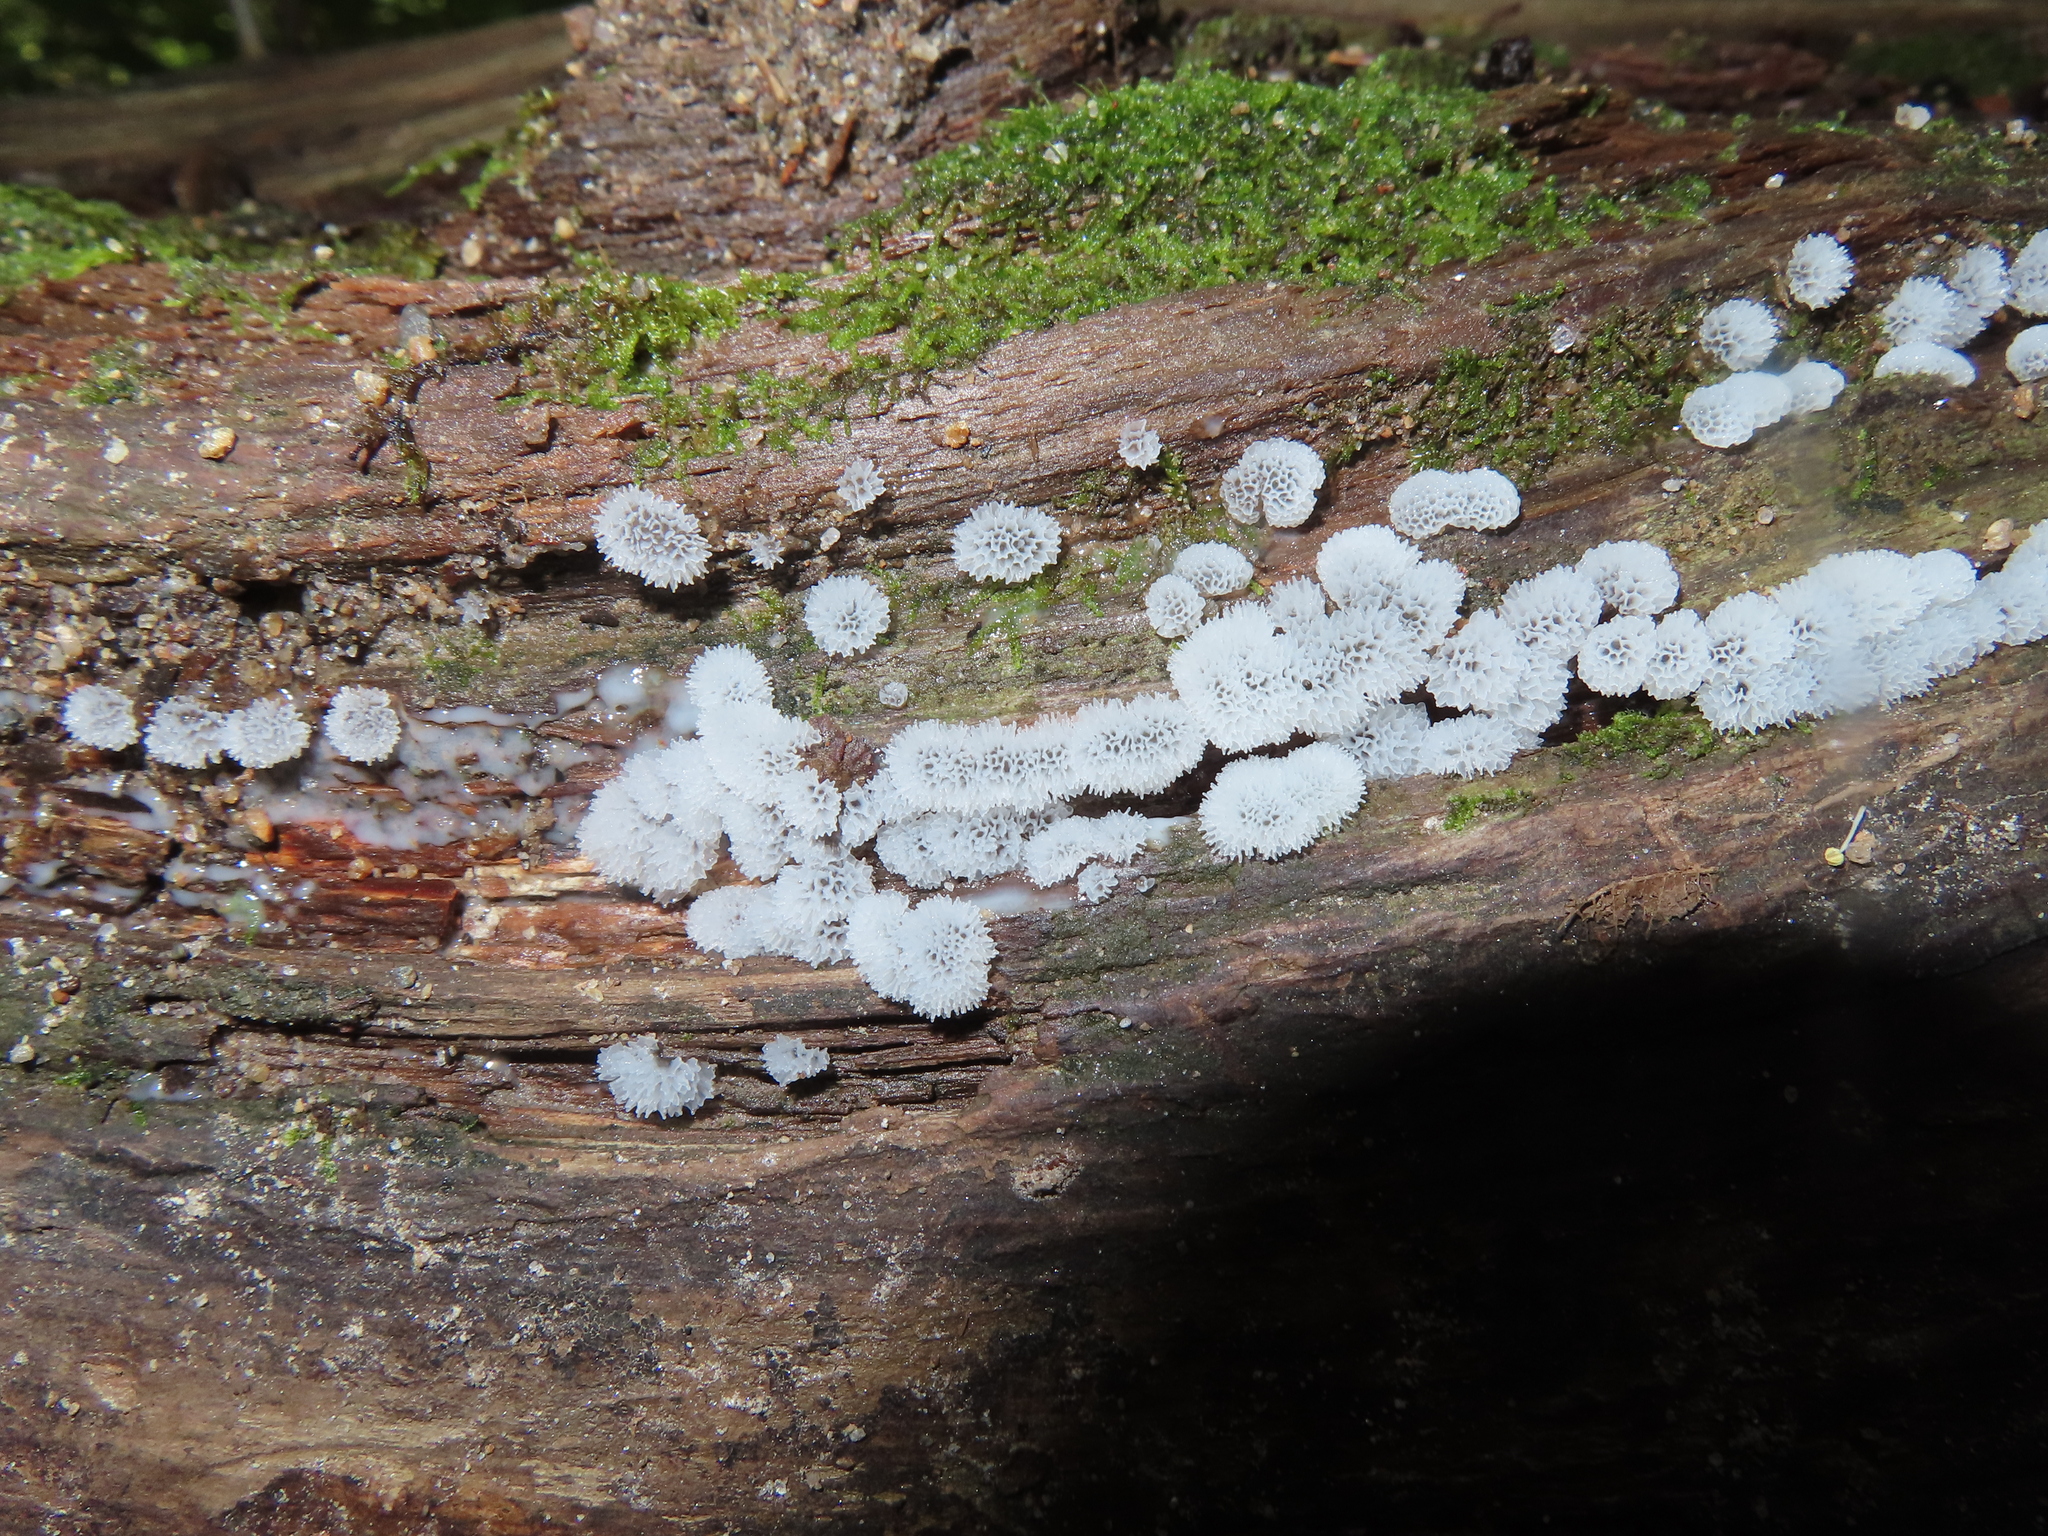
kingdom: Protozoa
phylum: Mycetozoa
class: Protosteliomycetes
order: Ceratiomyxales
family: Ceratiomyxaceae
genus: Ceratiomyxa
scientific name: Ceratiomyxa fruticulosa
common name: Honeycomb coral slime mold
